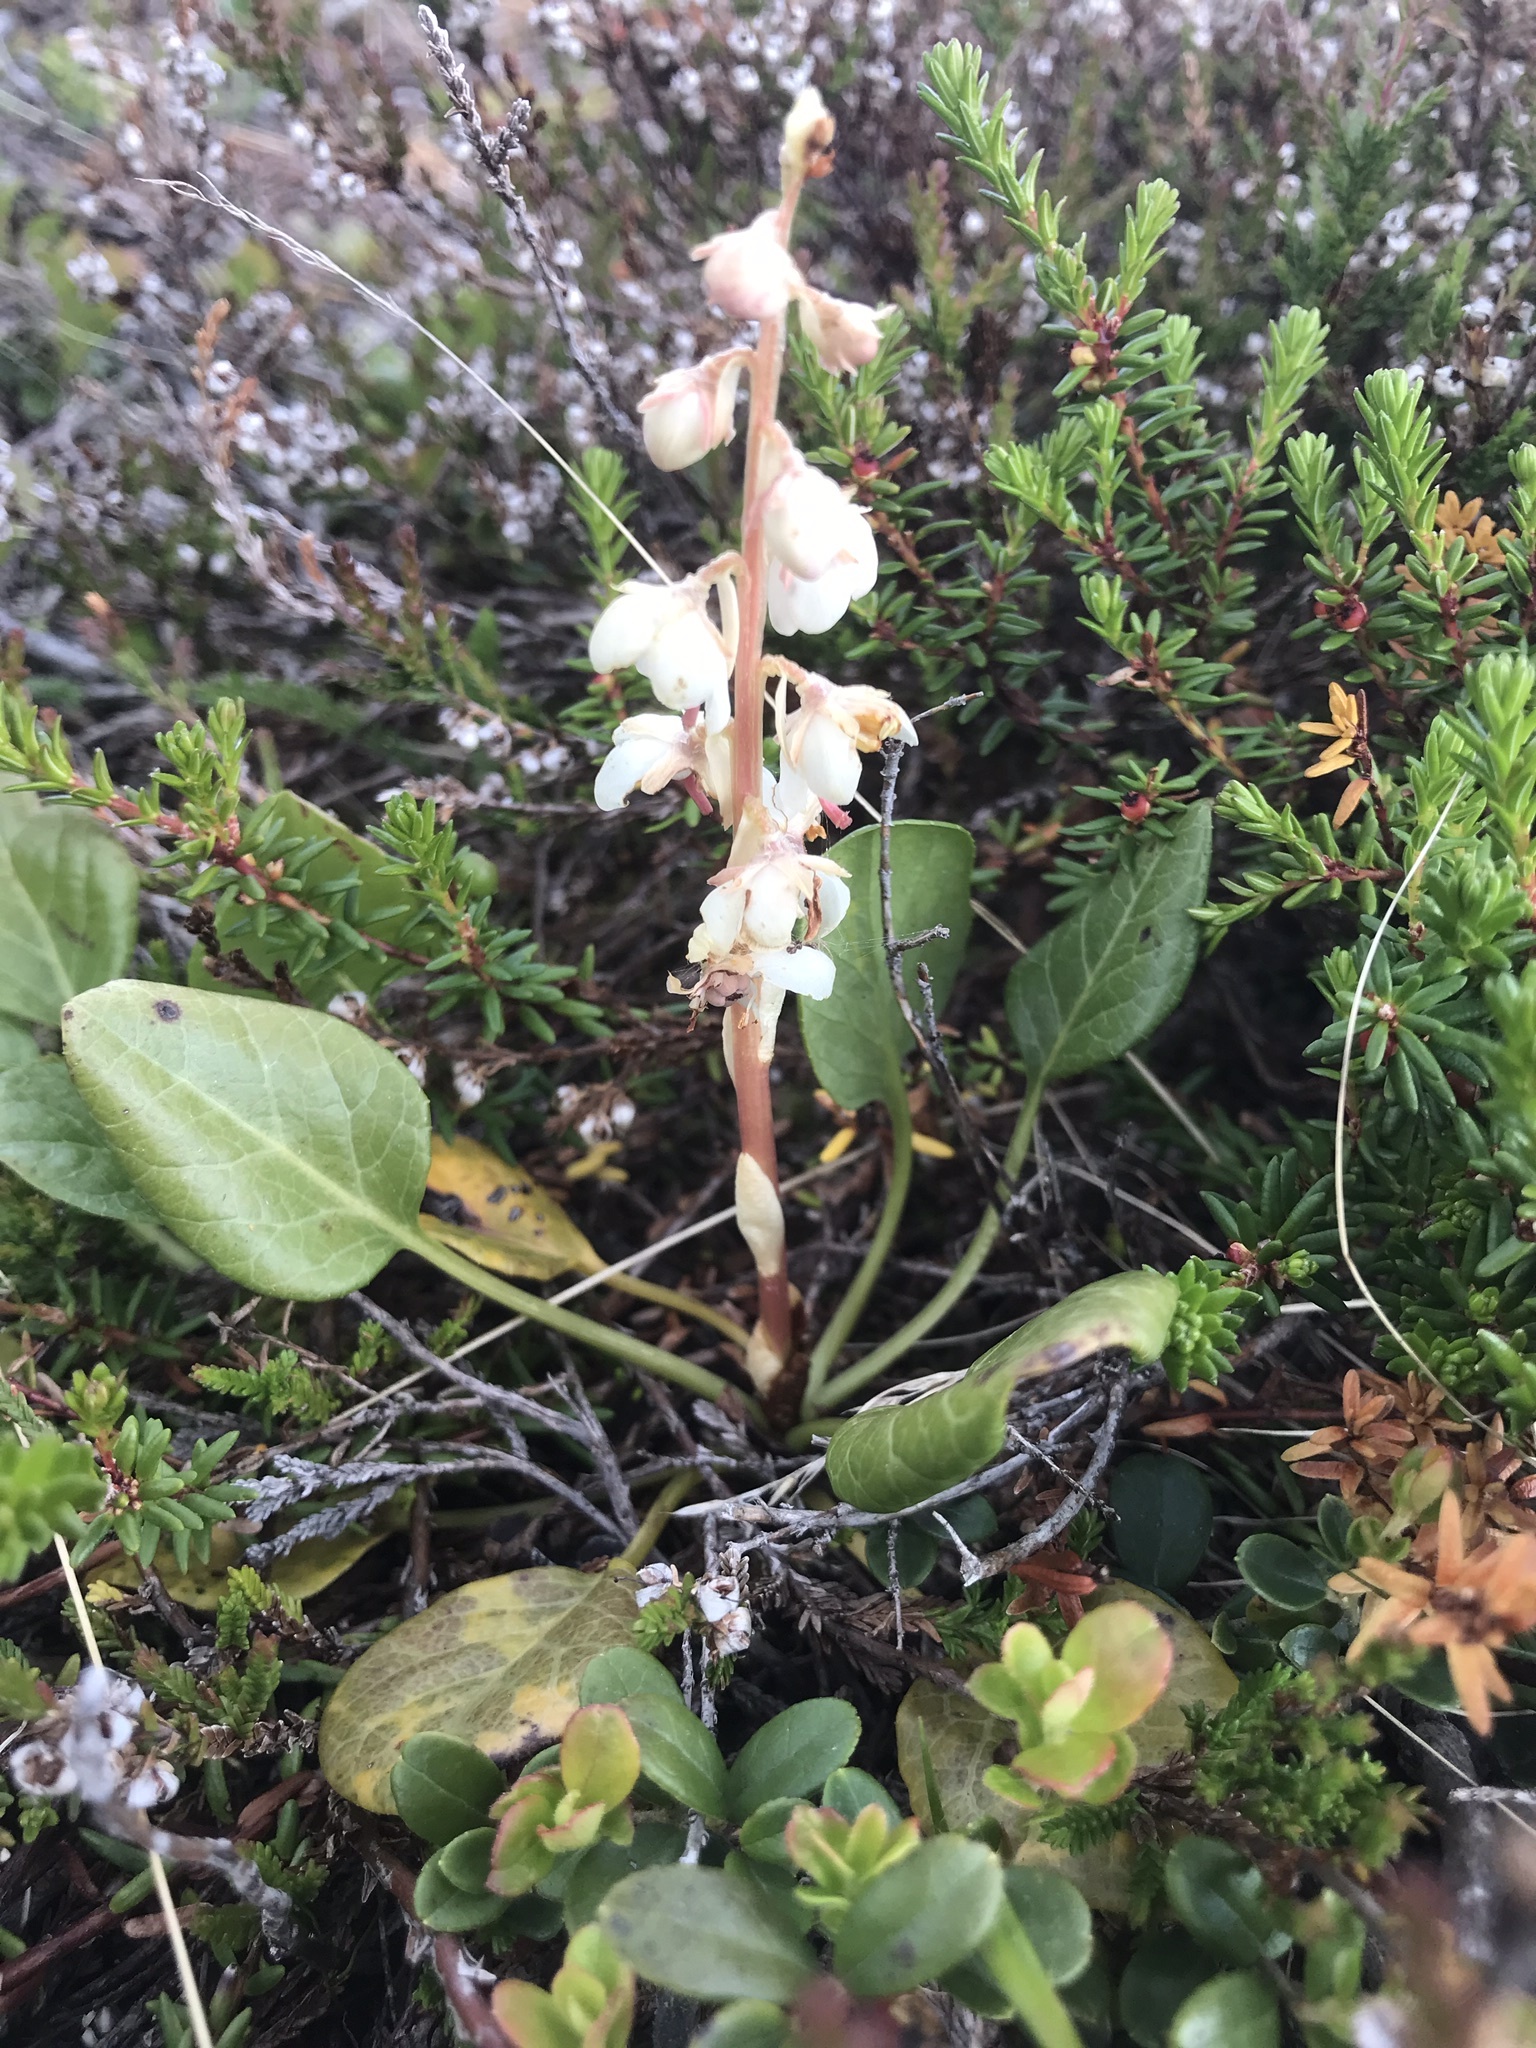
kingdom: Plantae
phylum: Tracheophyta
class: Magnoliopsida
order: Ericales
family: Ericaceae
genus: Pyrola
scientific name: Pyrola rotundifolia
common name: Round-leaved wintergreen
